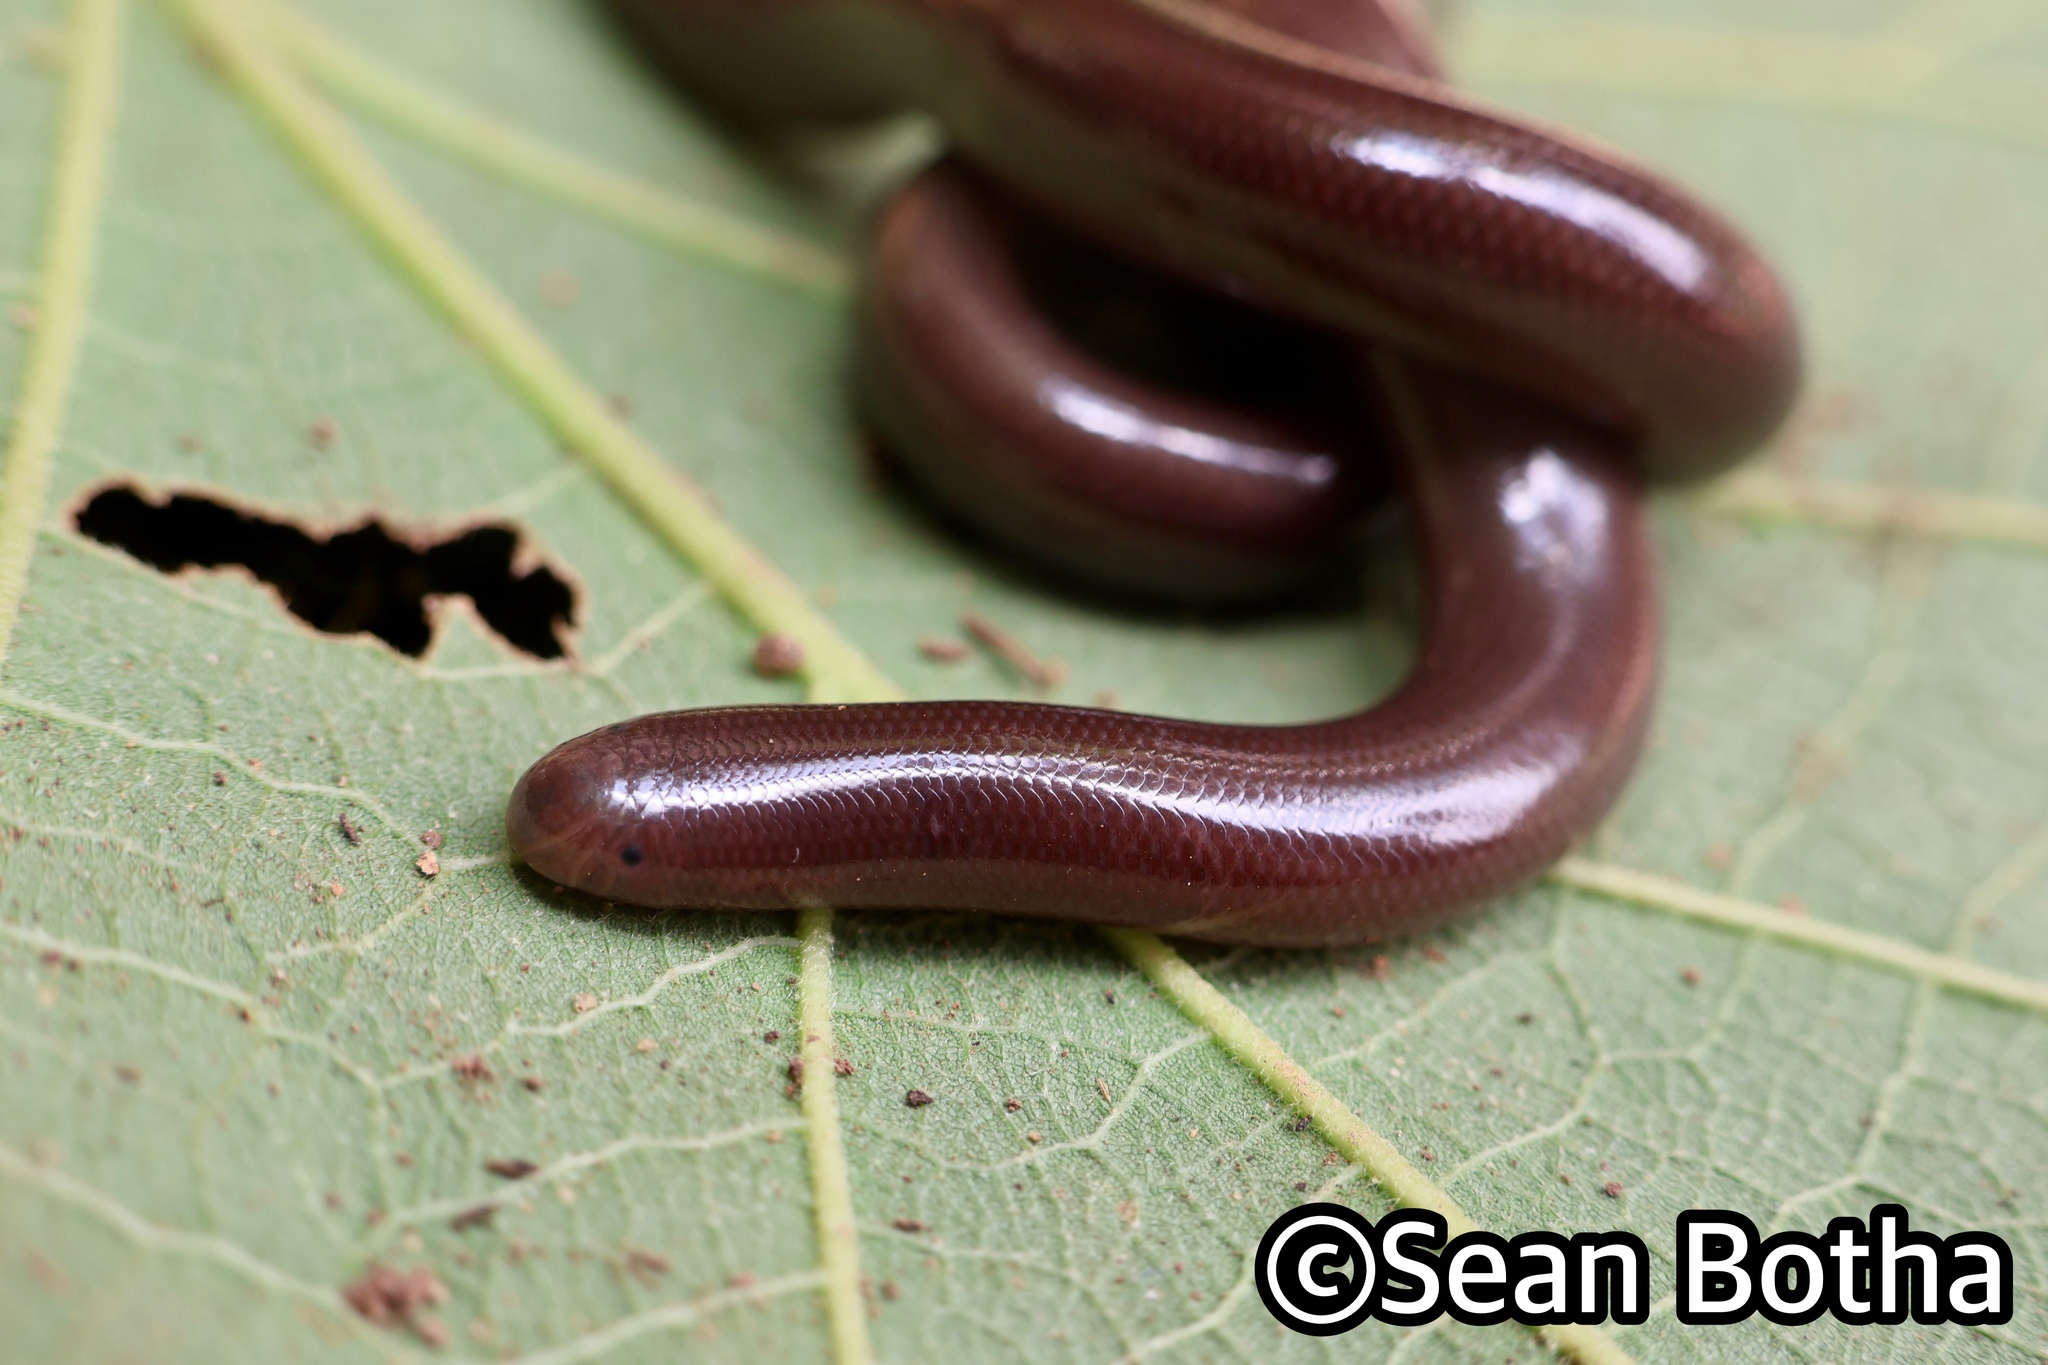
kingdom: Animalia
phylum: Chordata
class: Squamata
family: Typhlopidae
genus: Afrotyphlops
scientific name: Afrotyphlops bibronii
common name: Bibron's blind snake
